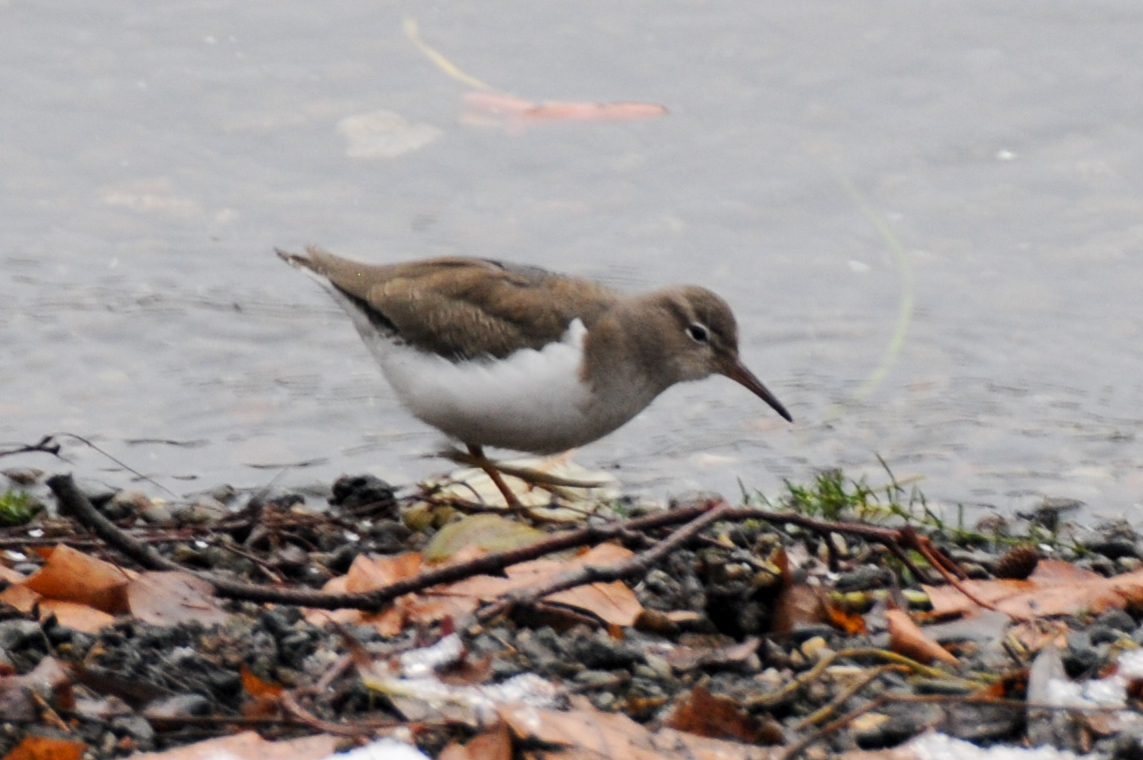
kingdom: Animalia
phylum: Chordata
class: Aves
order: Charadriiformes
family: Scolopacidae
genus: Actitis
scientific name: Actitis macularius
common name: Spotted sandpiper
